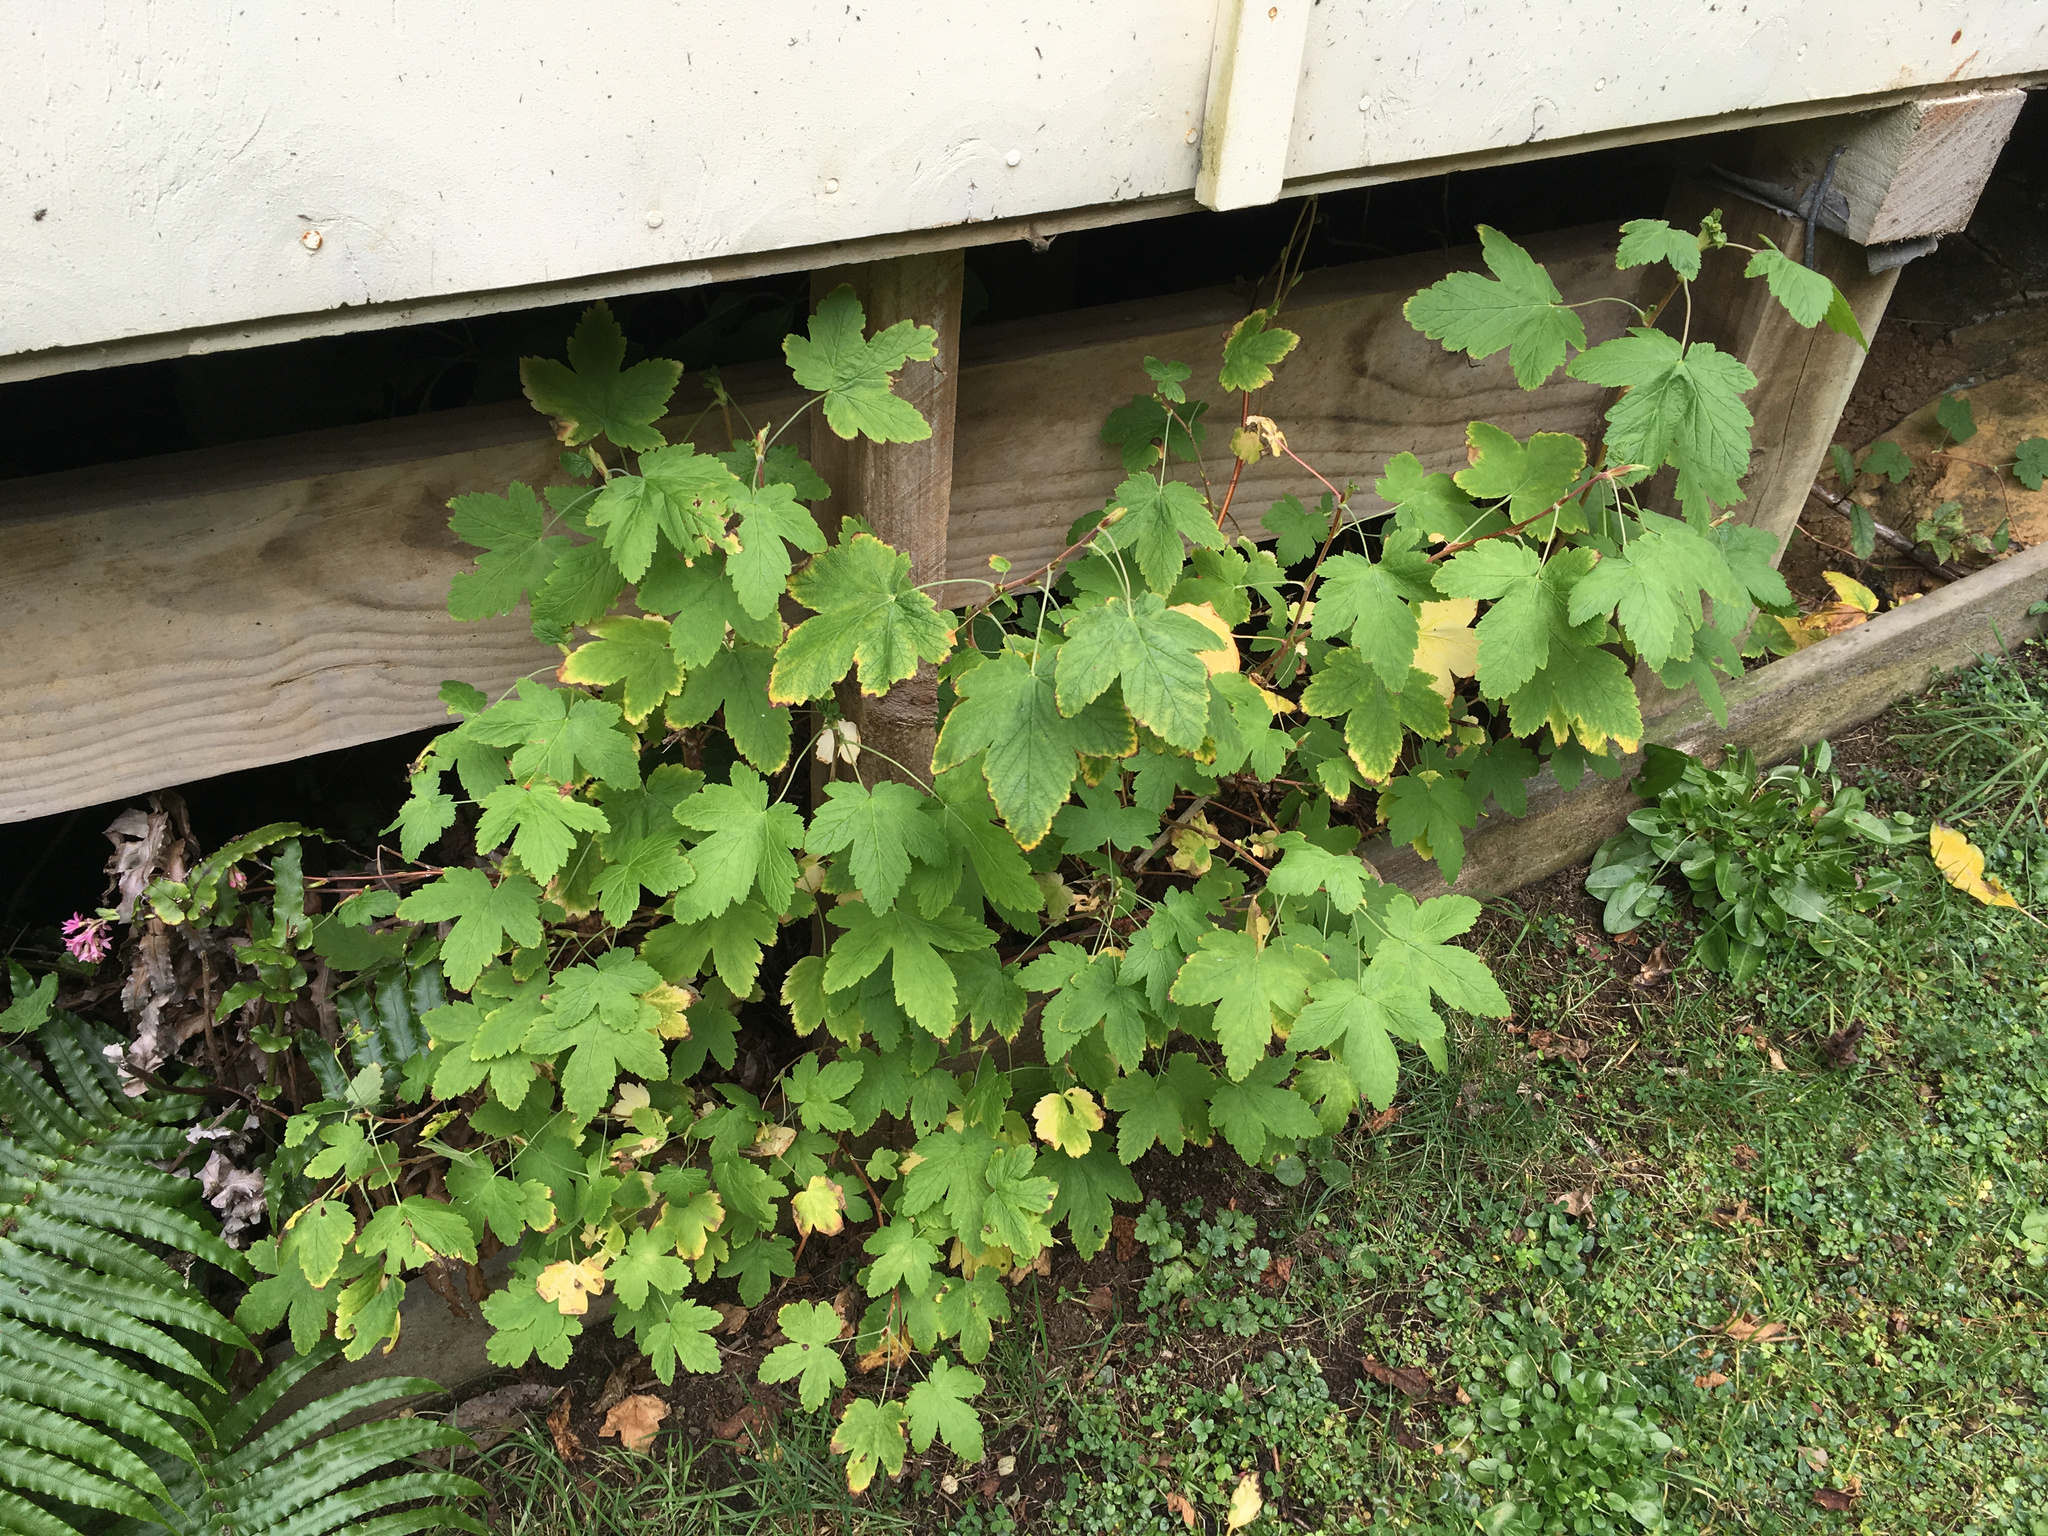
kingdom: Plantae
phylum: Tracheophyta
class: Magnoliopsida
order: Saxifragales
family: Grossulariaceae
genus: Ribes
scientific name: Ribes sanguineum
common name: Flowering currant
